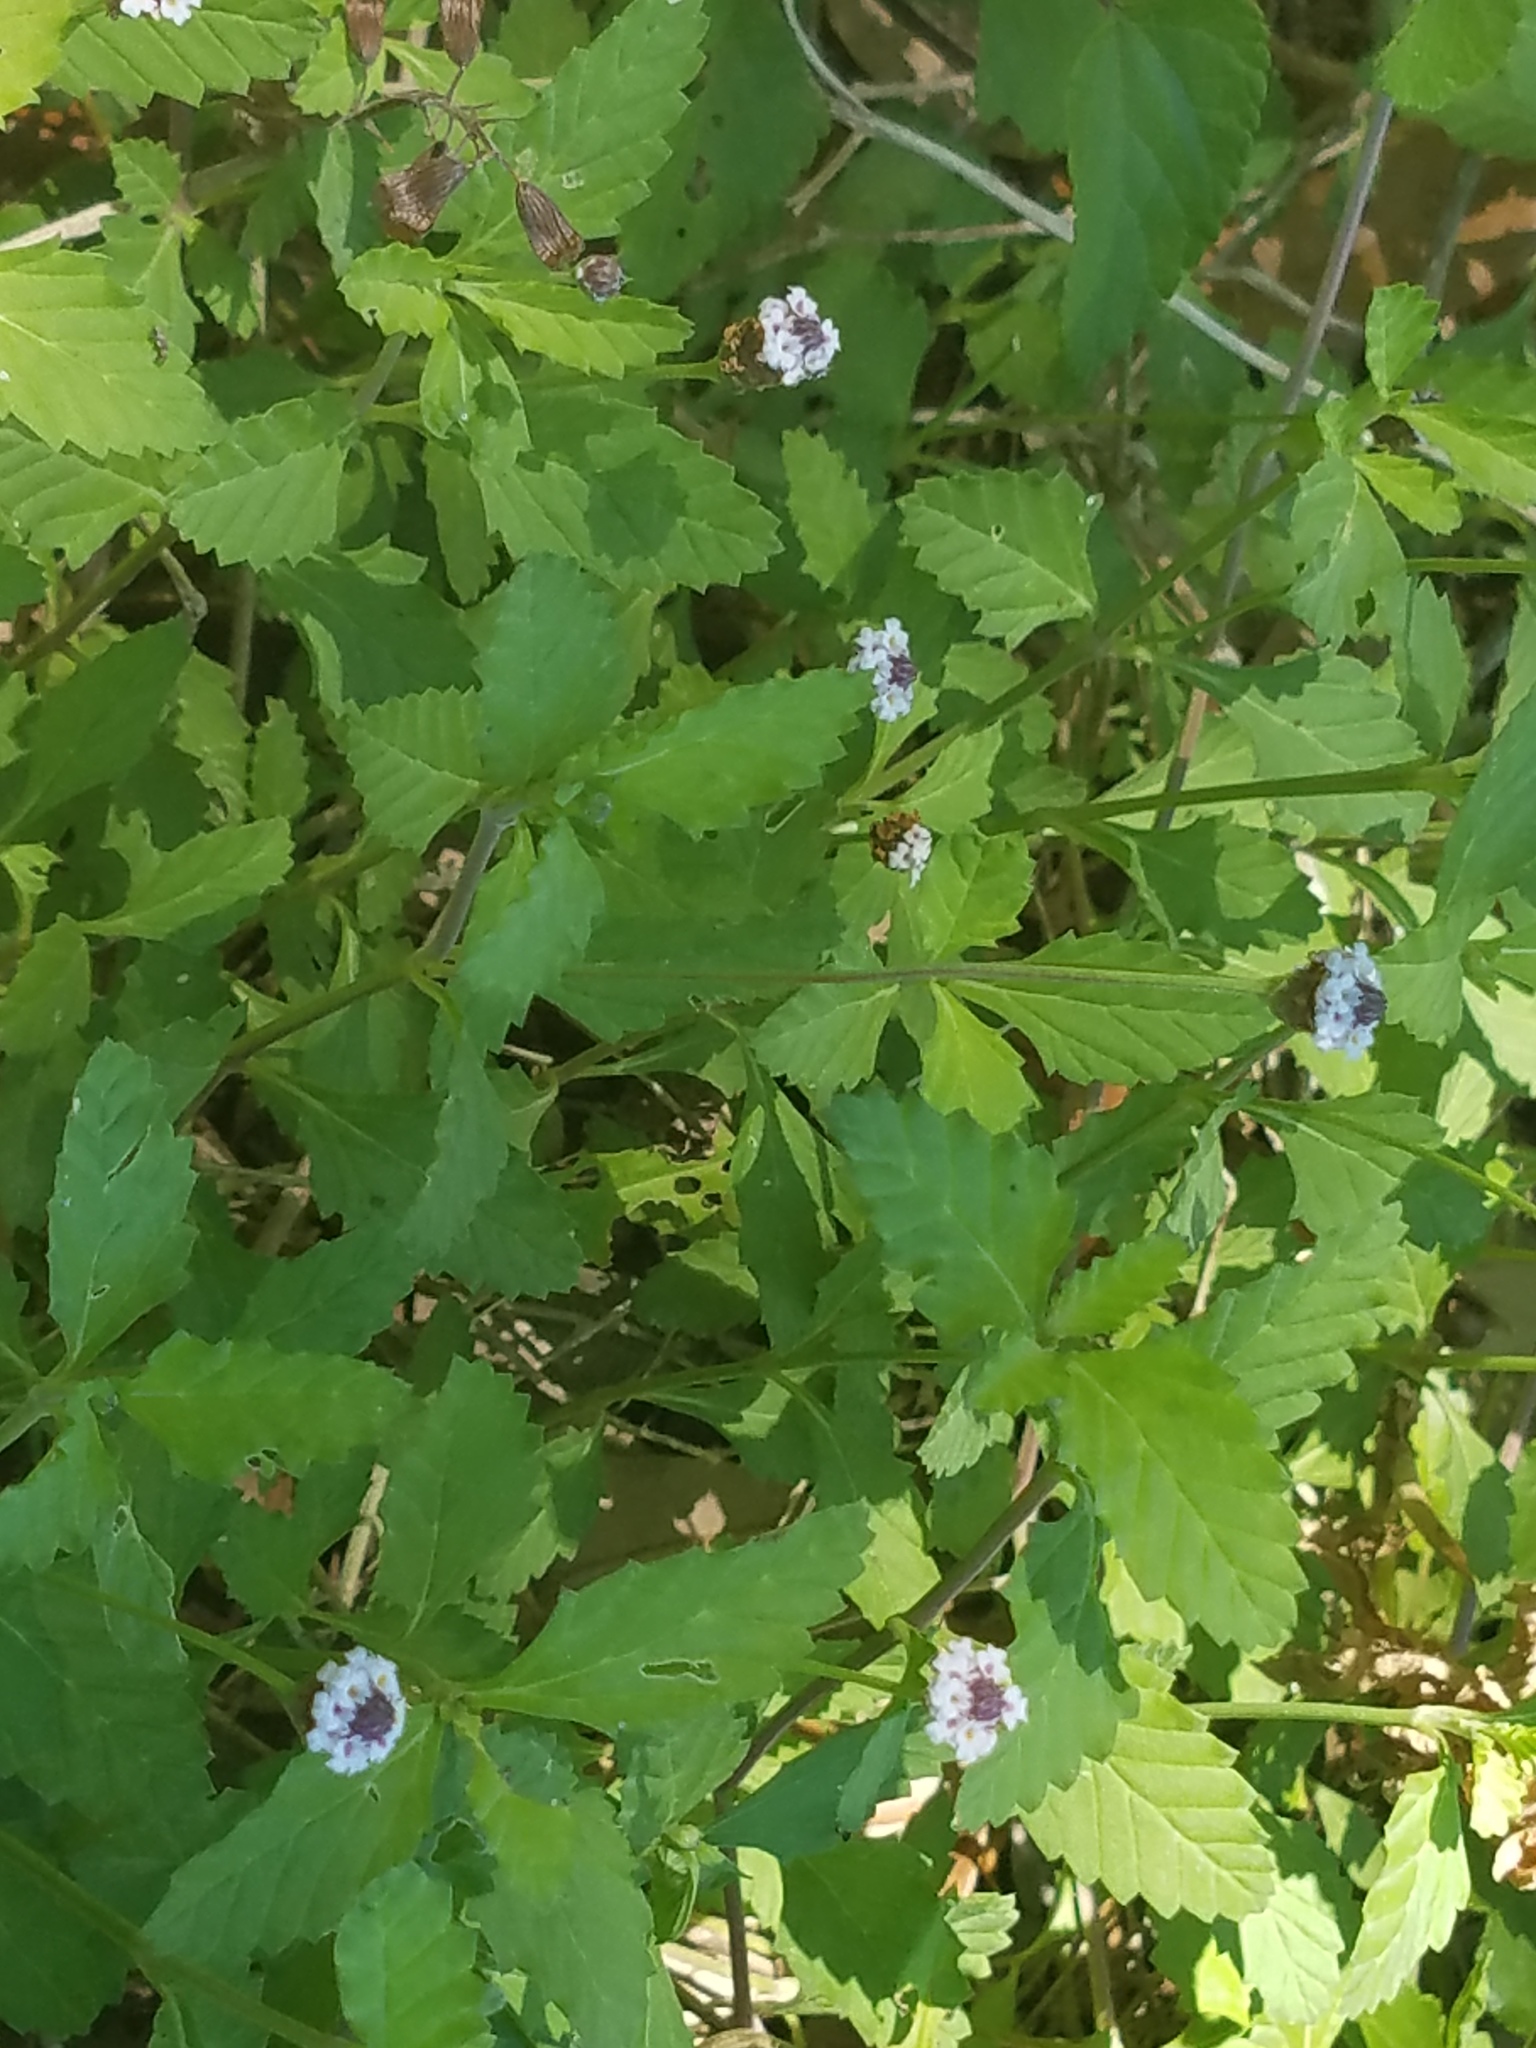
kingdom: Plantae
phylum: Tracheophyta
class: Magnoliopsida
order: Lamiales
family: Verbenaceae
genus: Phyla
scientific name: Phyla nodiflora
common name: Frogfruit
